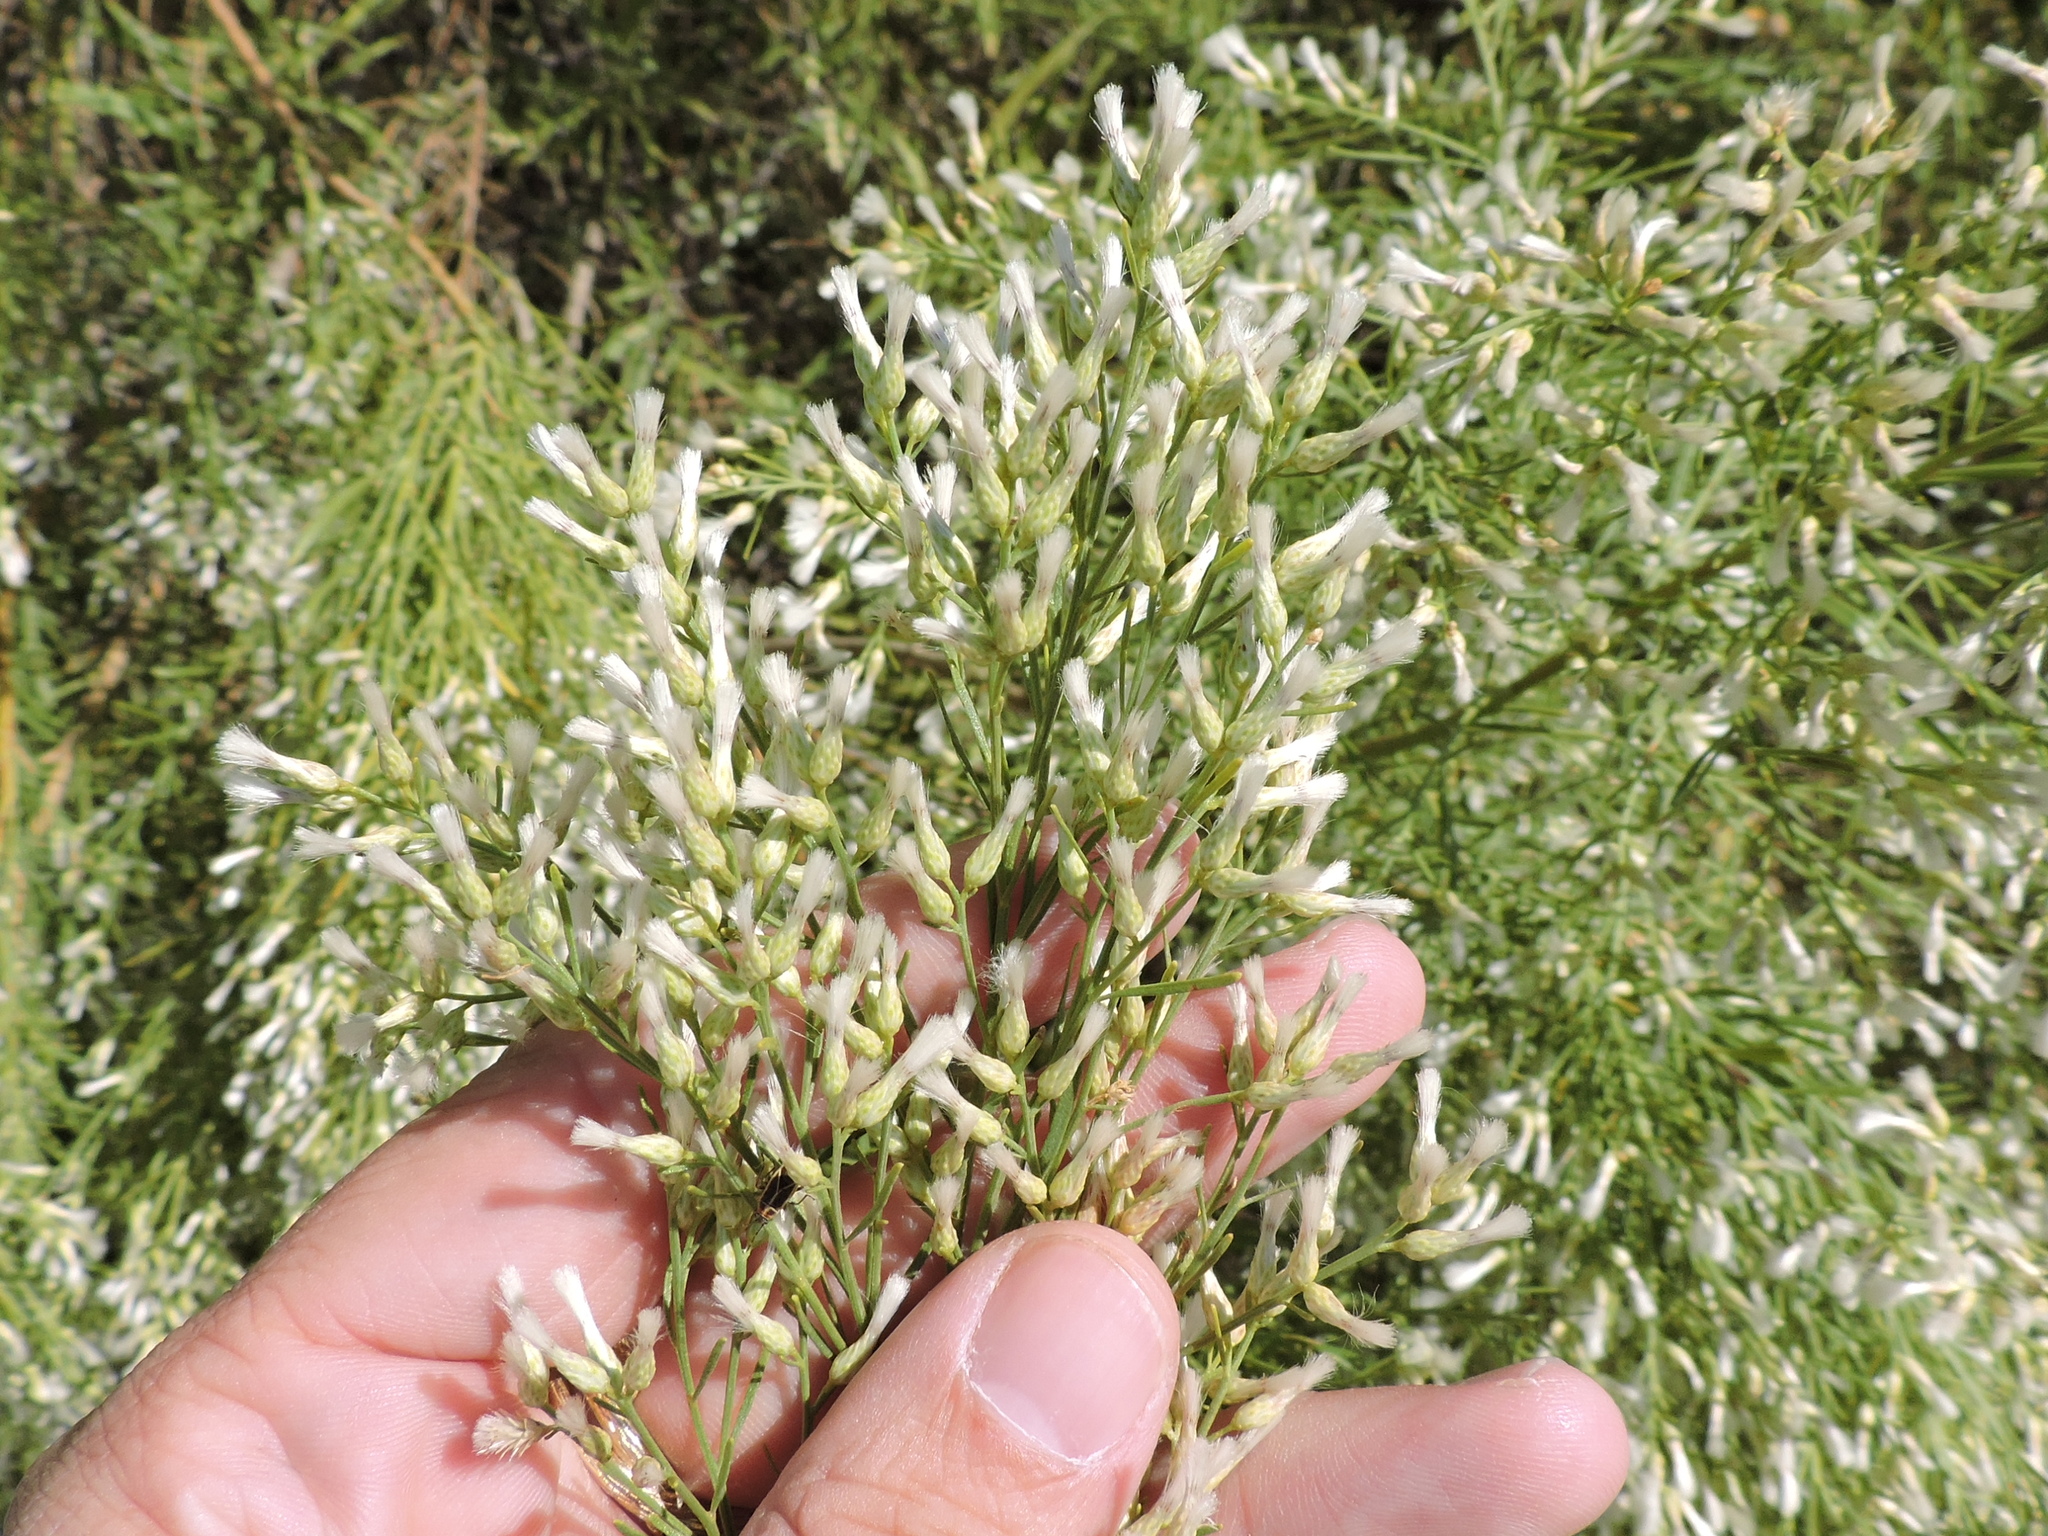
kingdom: Plantae
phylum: Tracheophyta
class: Magnoliopsida
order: Asterales
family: Asteraceae
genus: Baccharis
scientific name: Baccharis neglecta
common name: Roosevelt-weed
